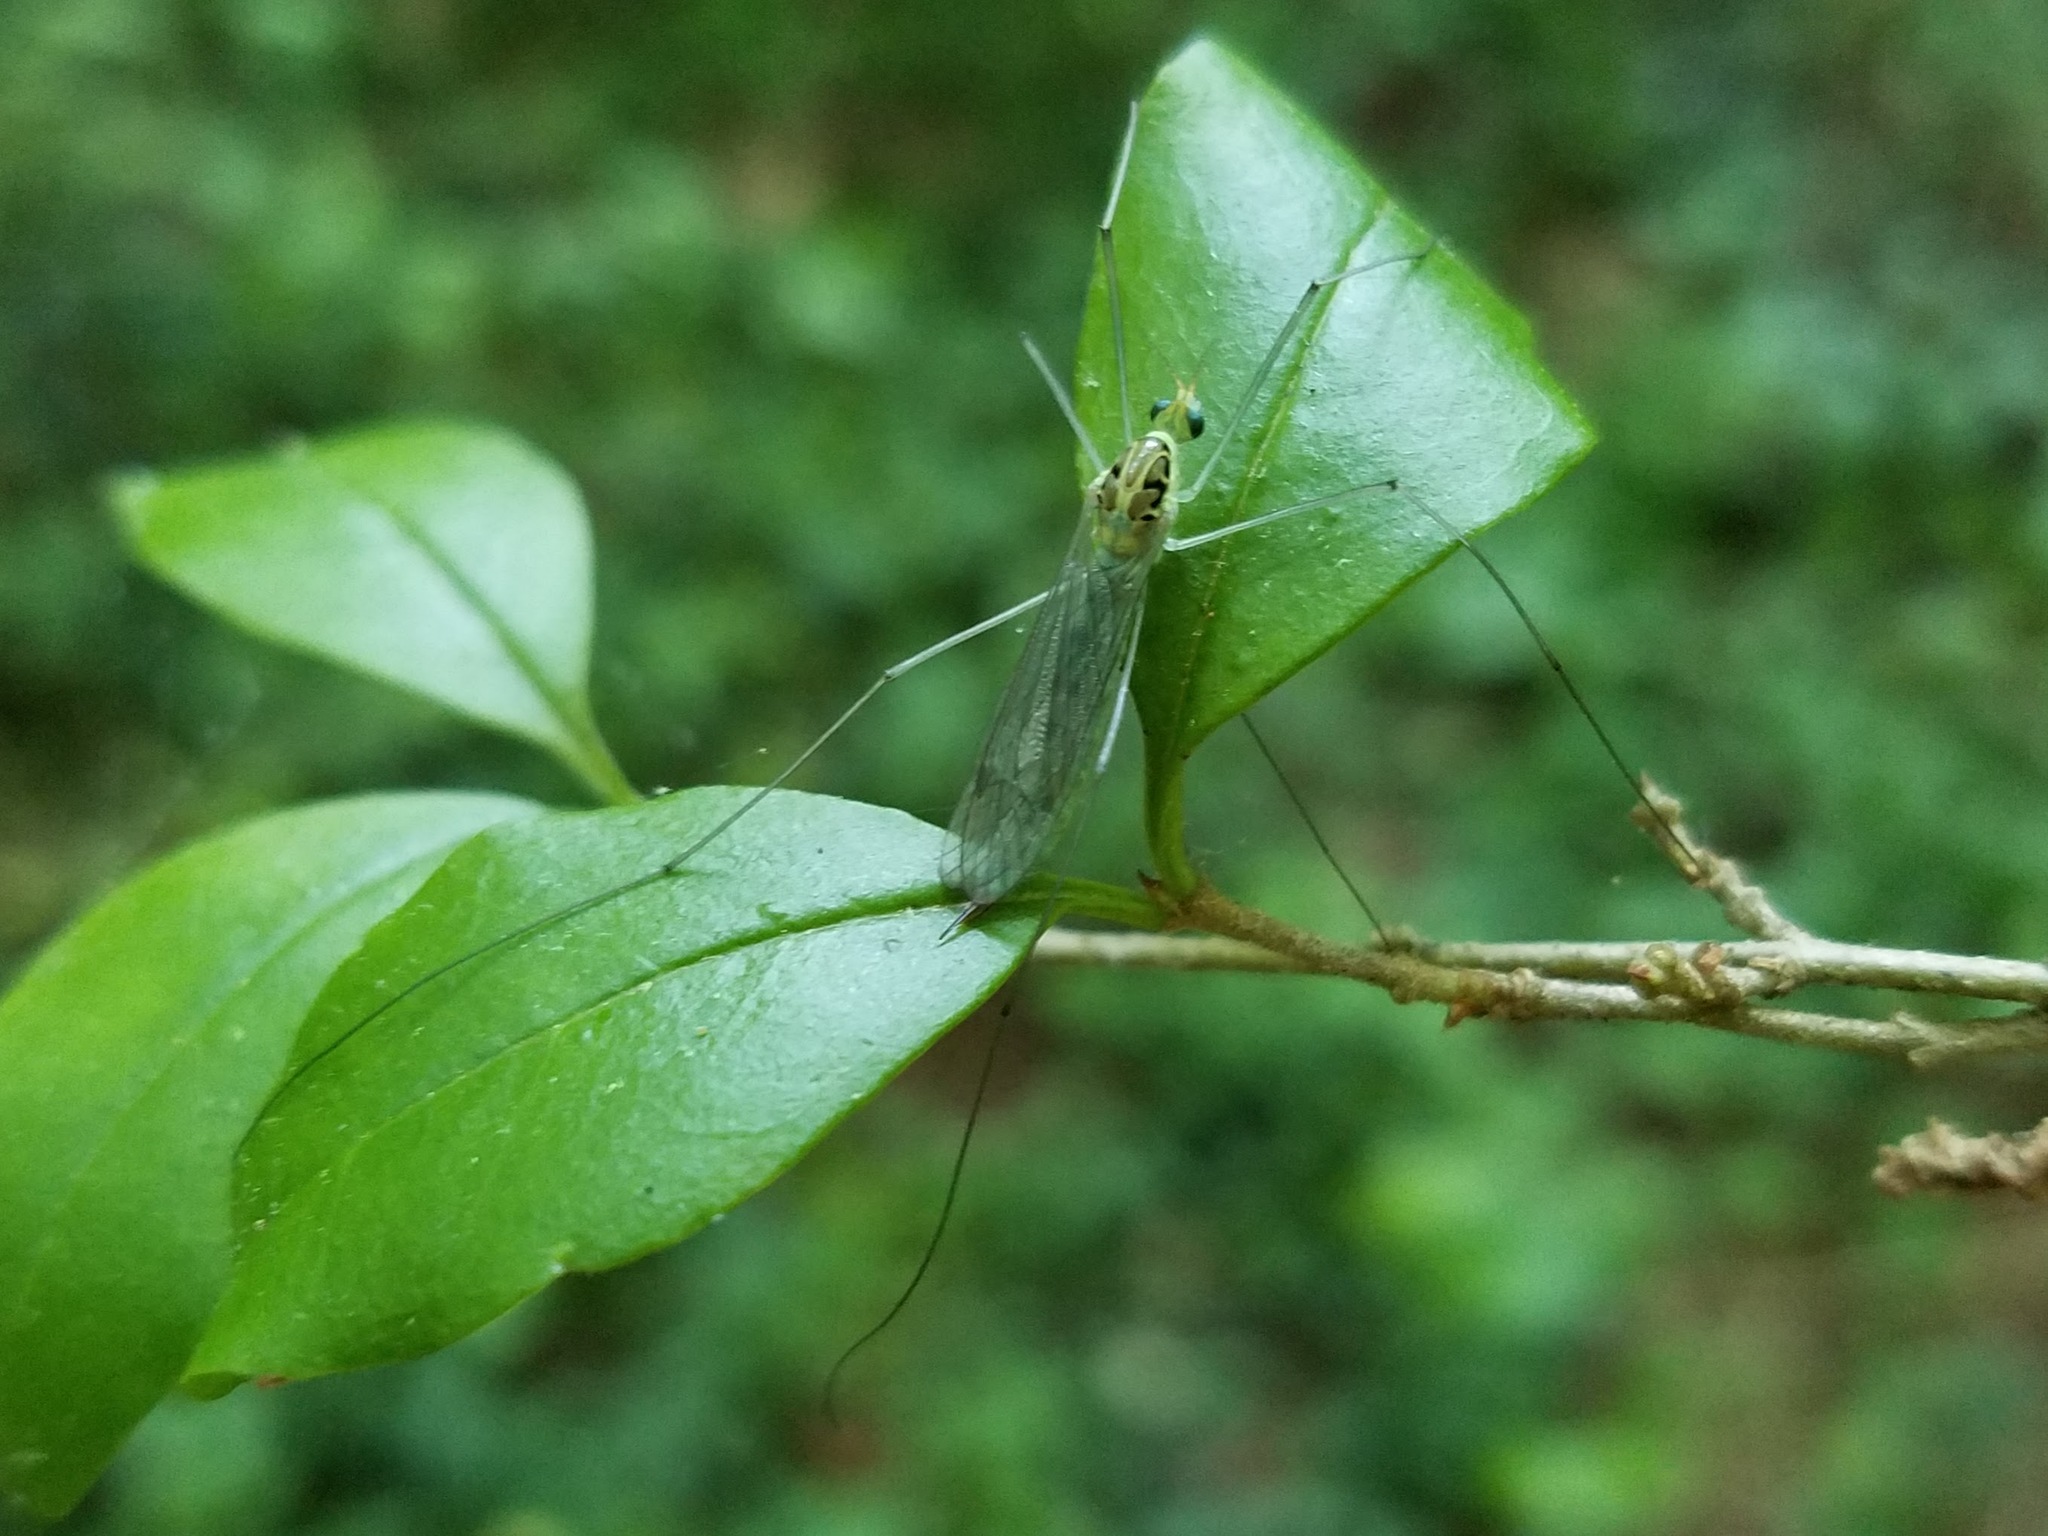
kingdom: Animalia
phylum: Arthropoda
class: Insecta
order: Diptera
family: Tipulidae
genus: Nephrotoma
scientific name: Nephrotoma virescens
